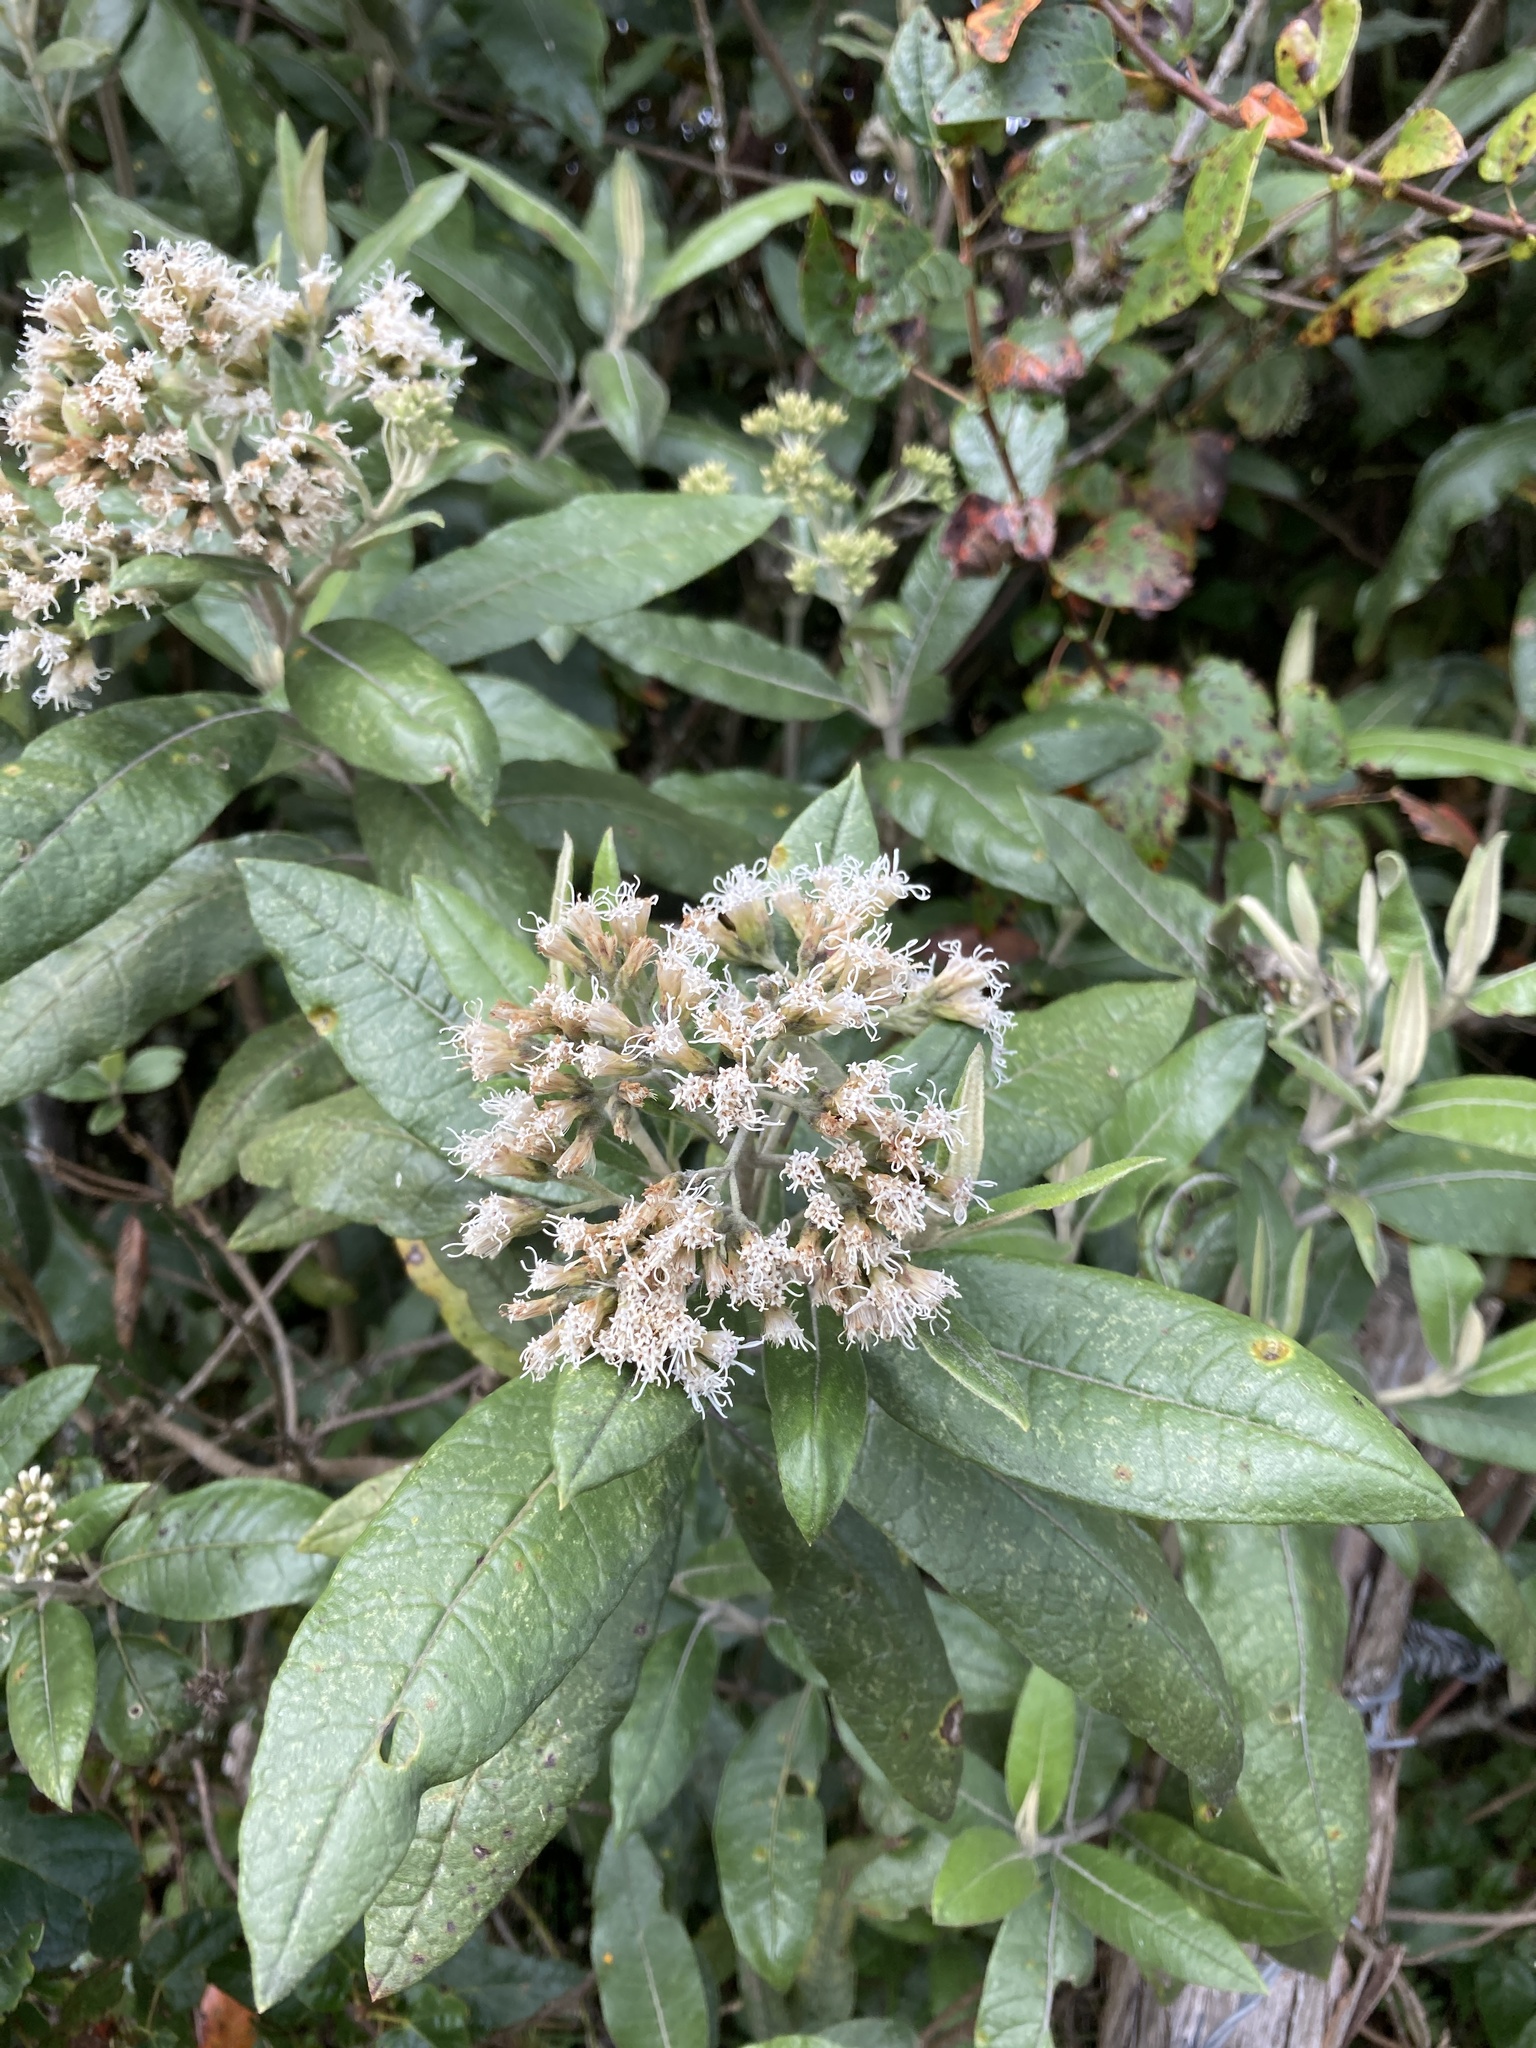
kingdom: Plantae
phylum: Tracheophyta
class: Magnoliopsida
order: Asterales
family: Asteraceae
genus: Ageratina
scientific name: Ageratina asclepiadea
